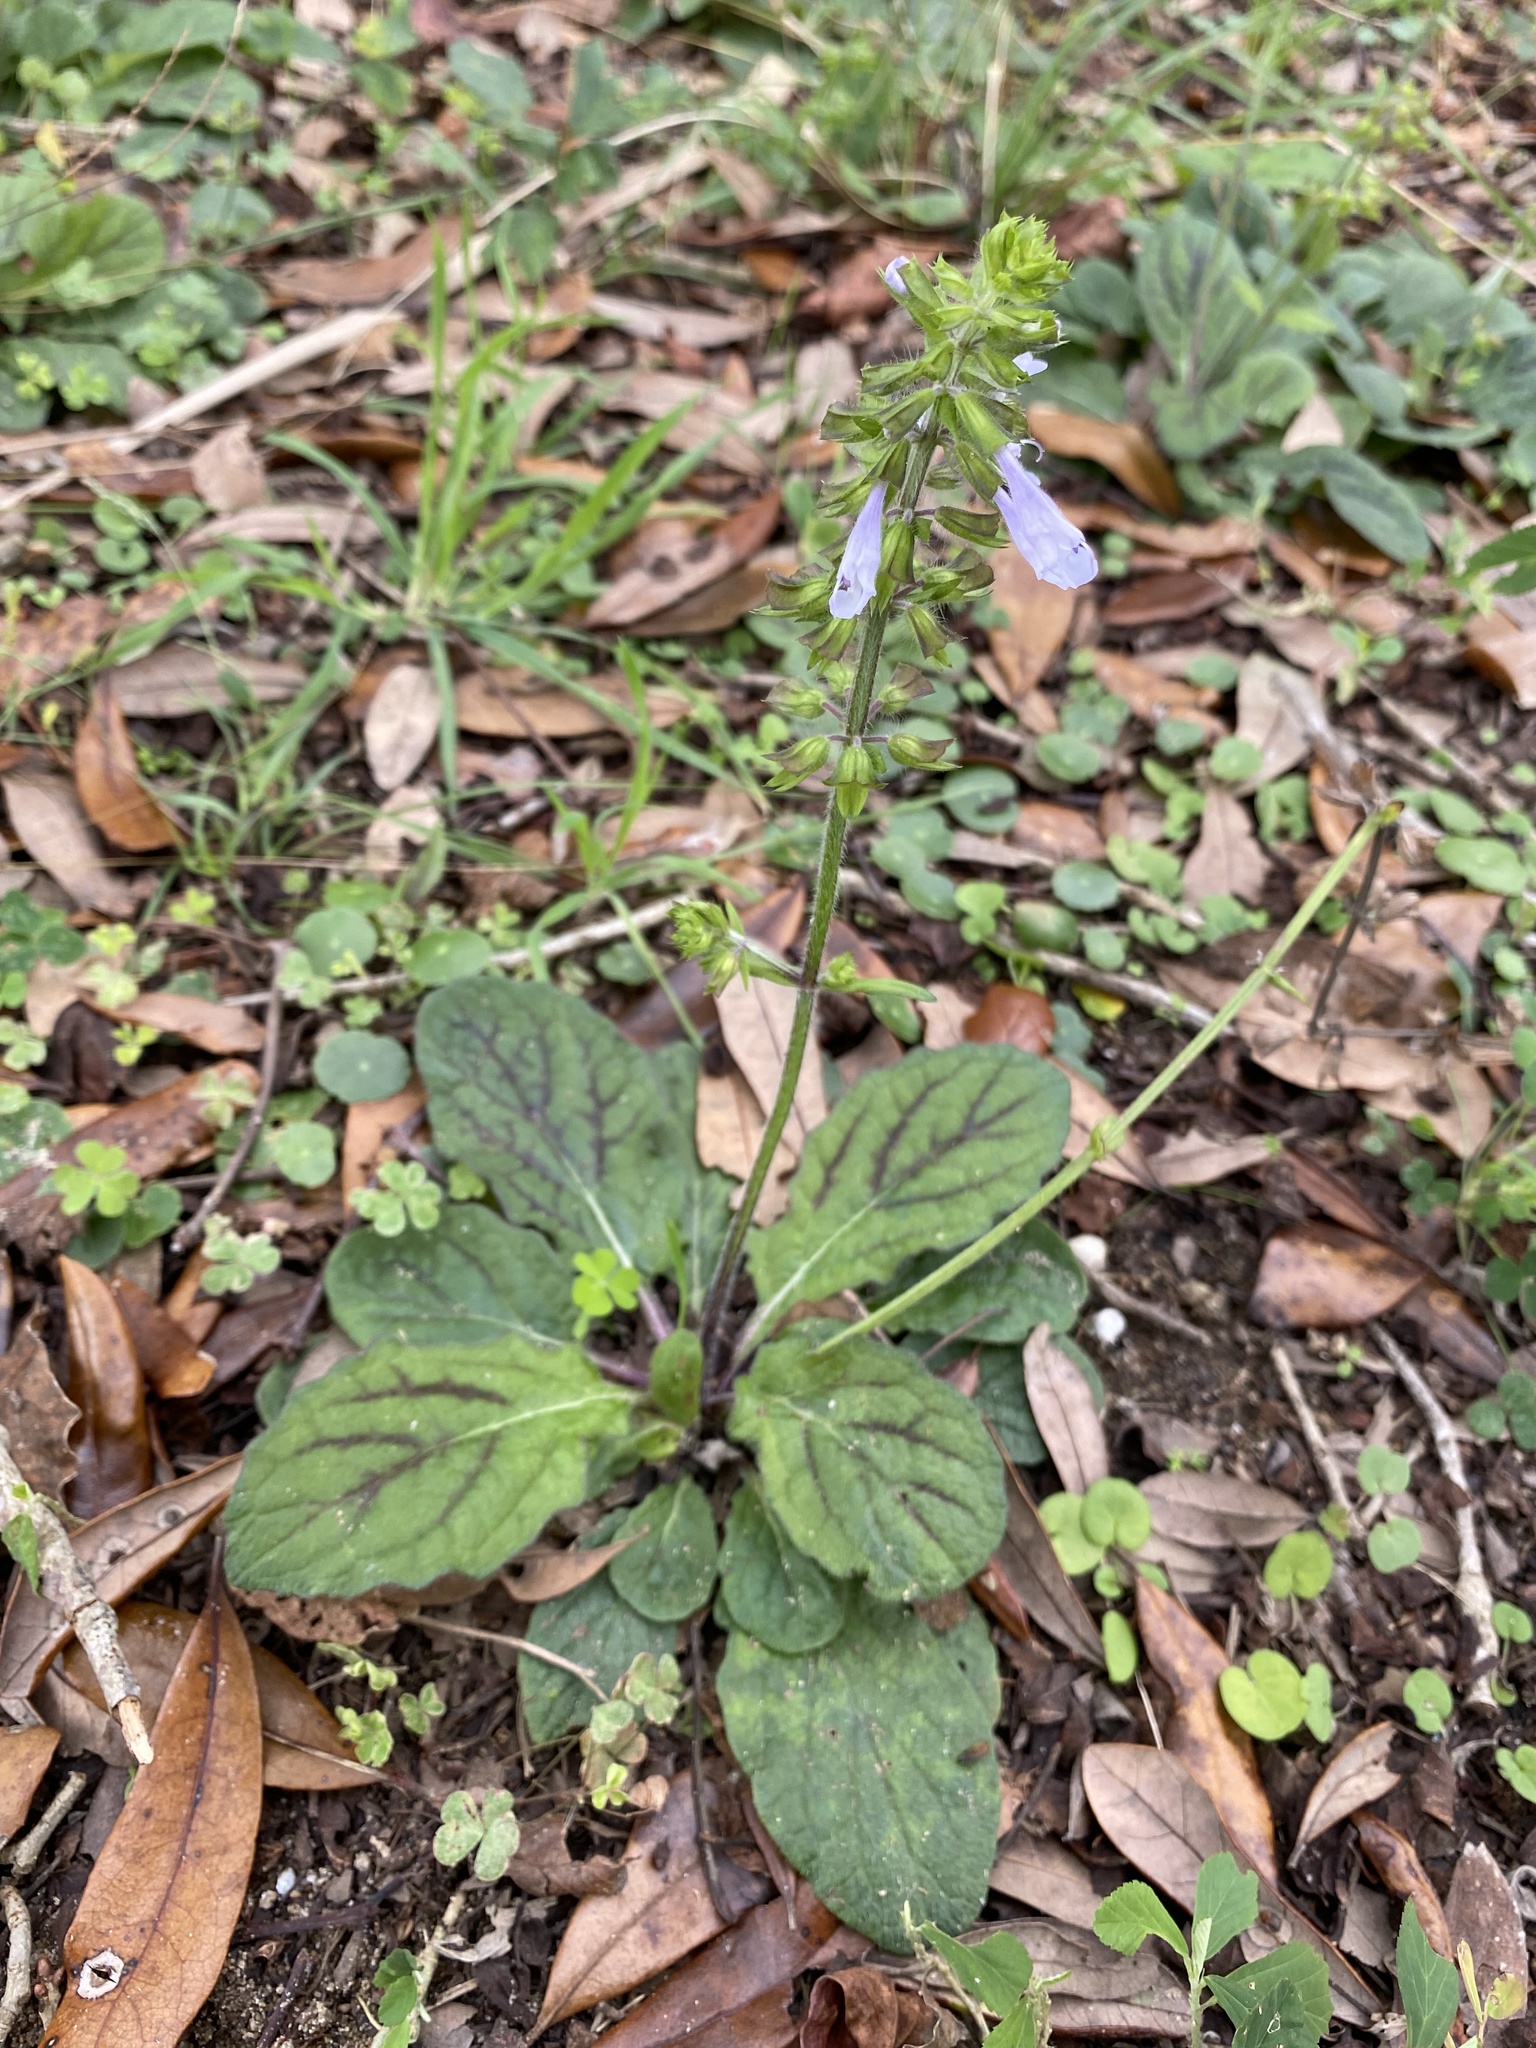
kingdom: Plantae
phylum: Tracheophyta
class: Magnoliopsida
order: Lamiales
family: Lamiaceae
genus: Salvia
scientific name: Salvia lyrata
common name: Cancerweed
